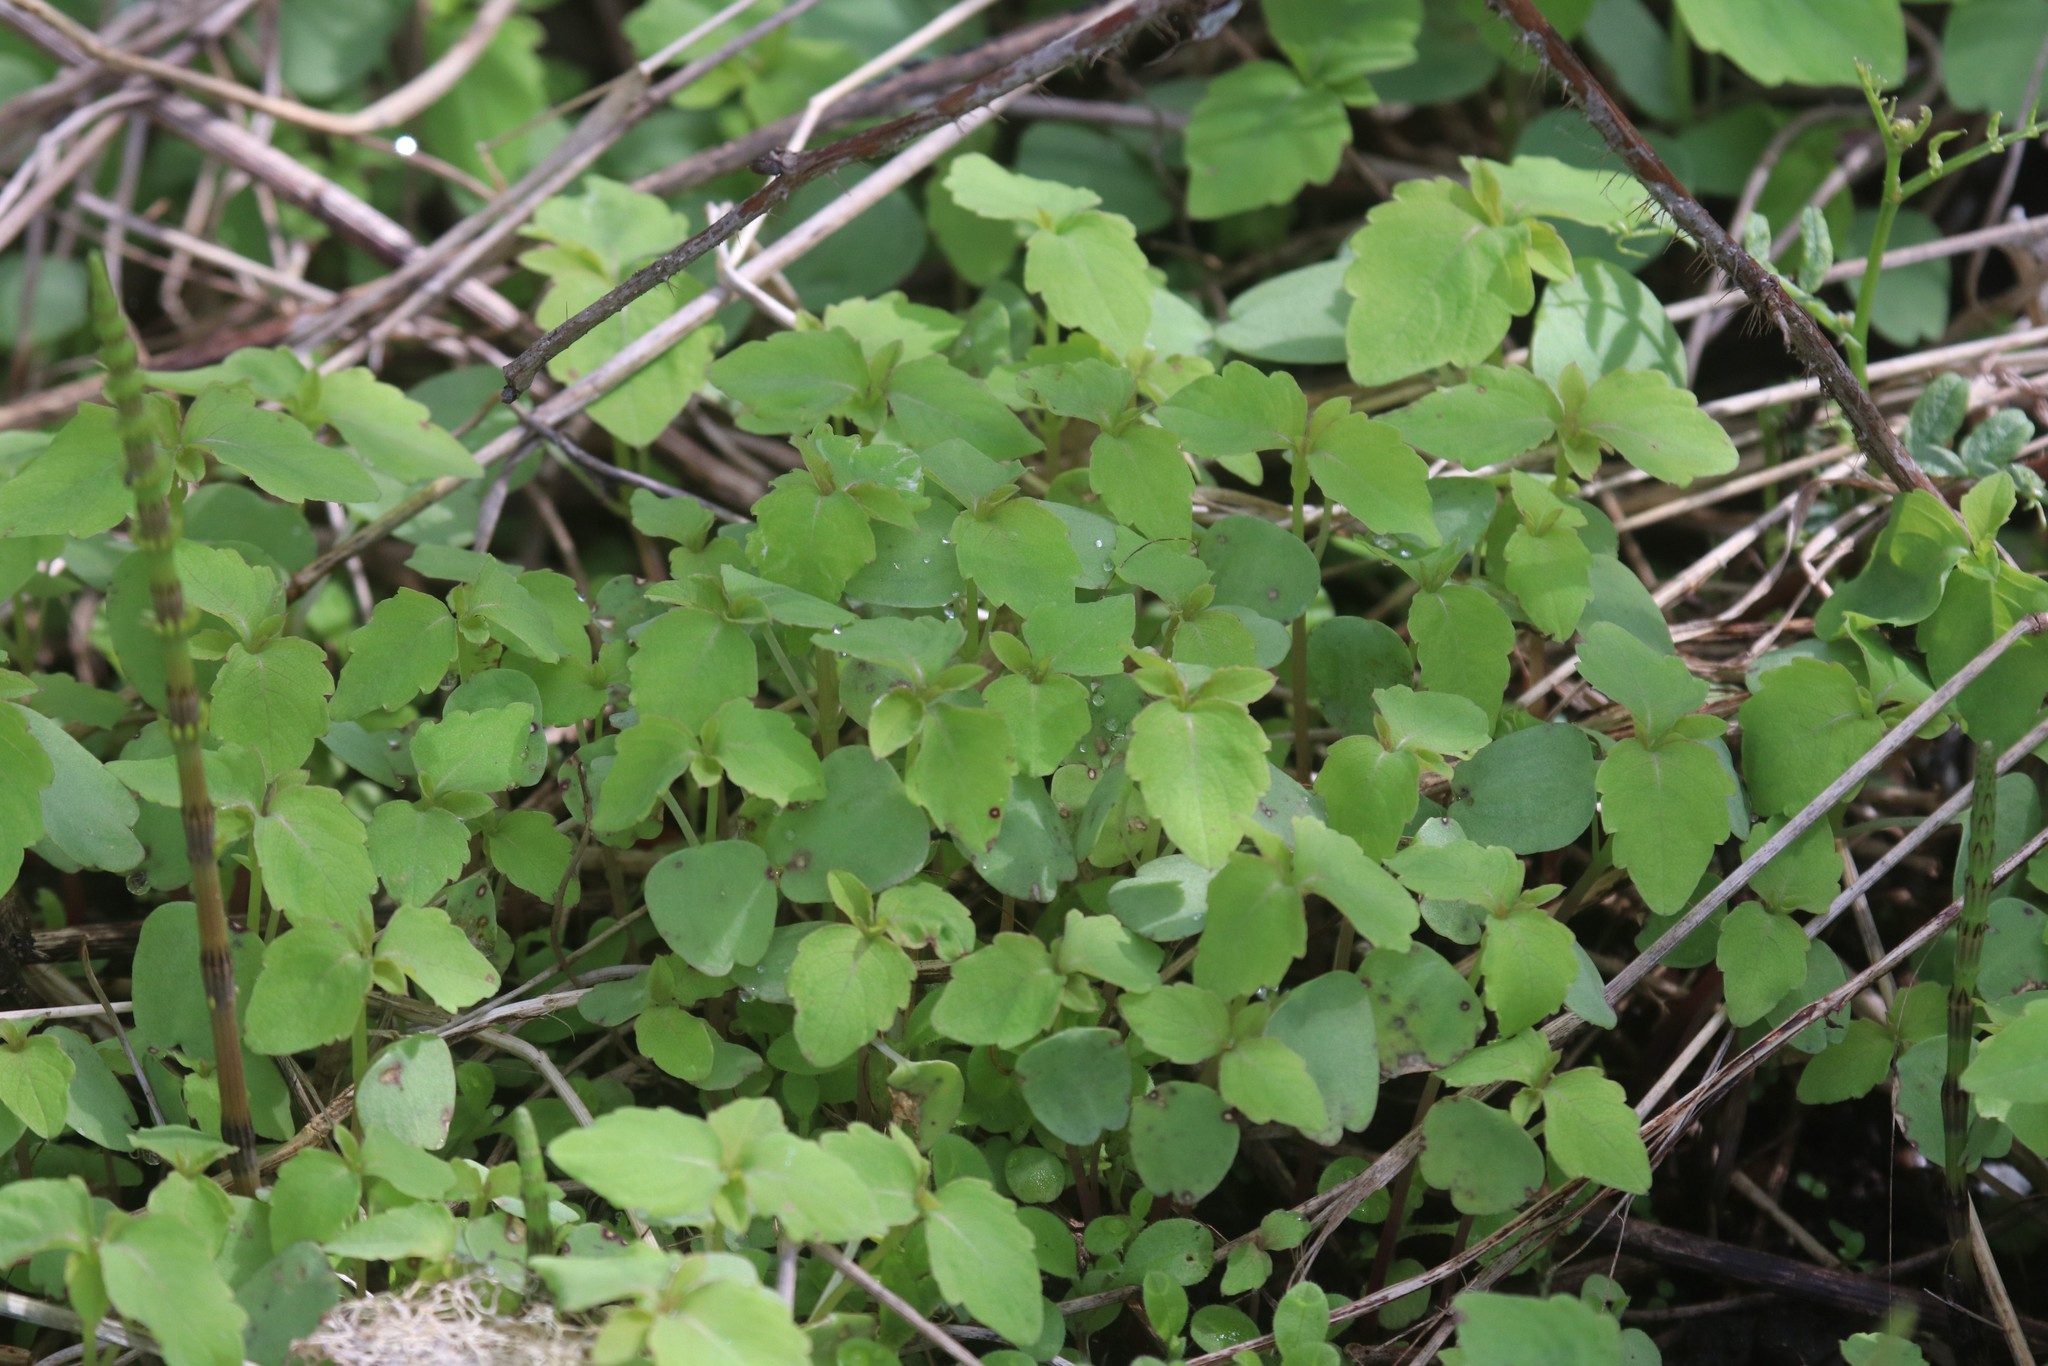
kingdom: Plantae
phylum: Tracheophyta
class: Magnoliopsida
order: Ericales
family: Balsaminaceae
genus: Impatiens
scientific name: Impatiens noli-tangere
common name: Touch-me-not balsam
